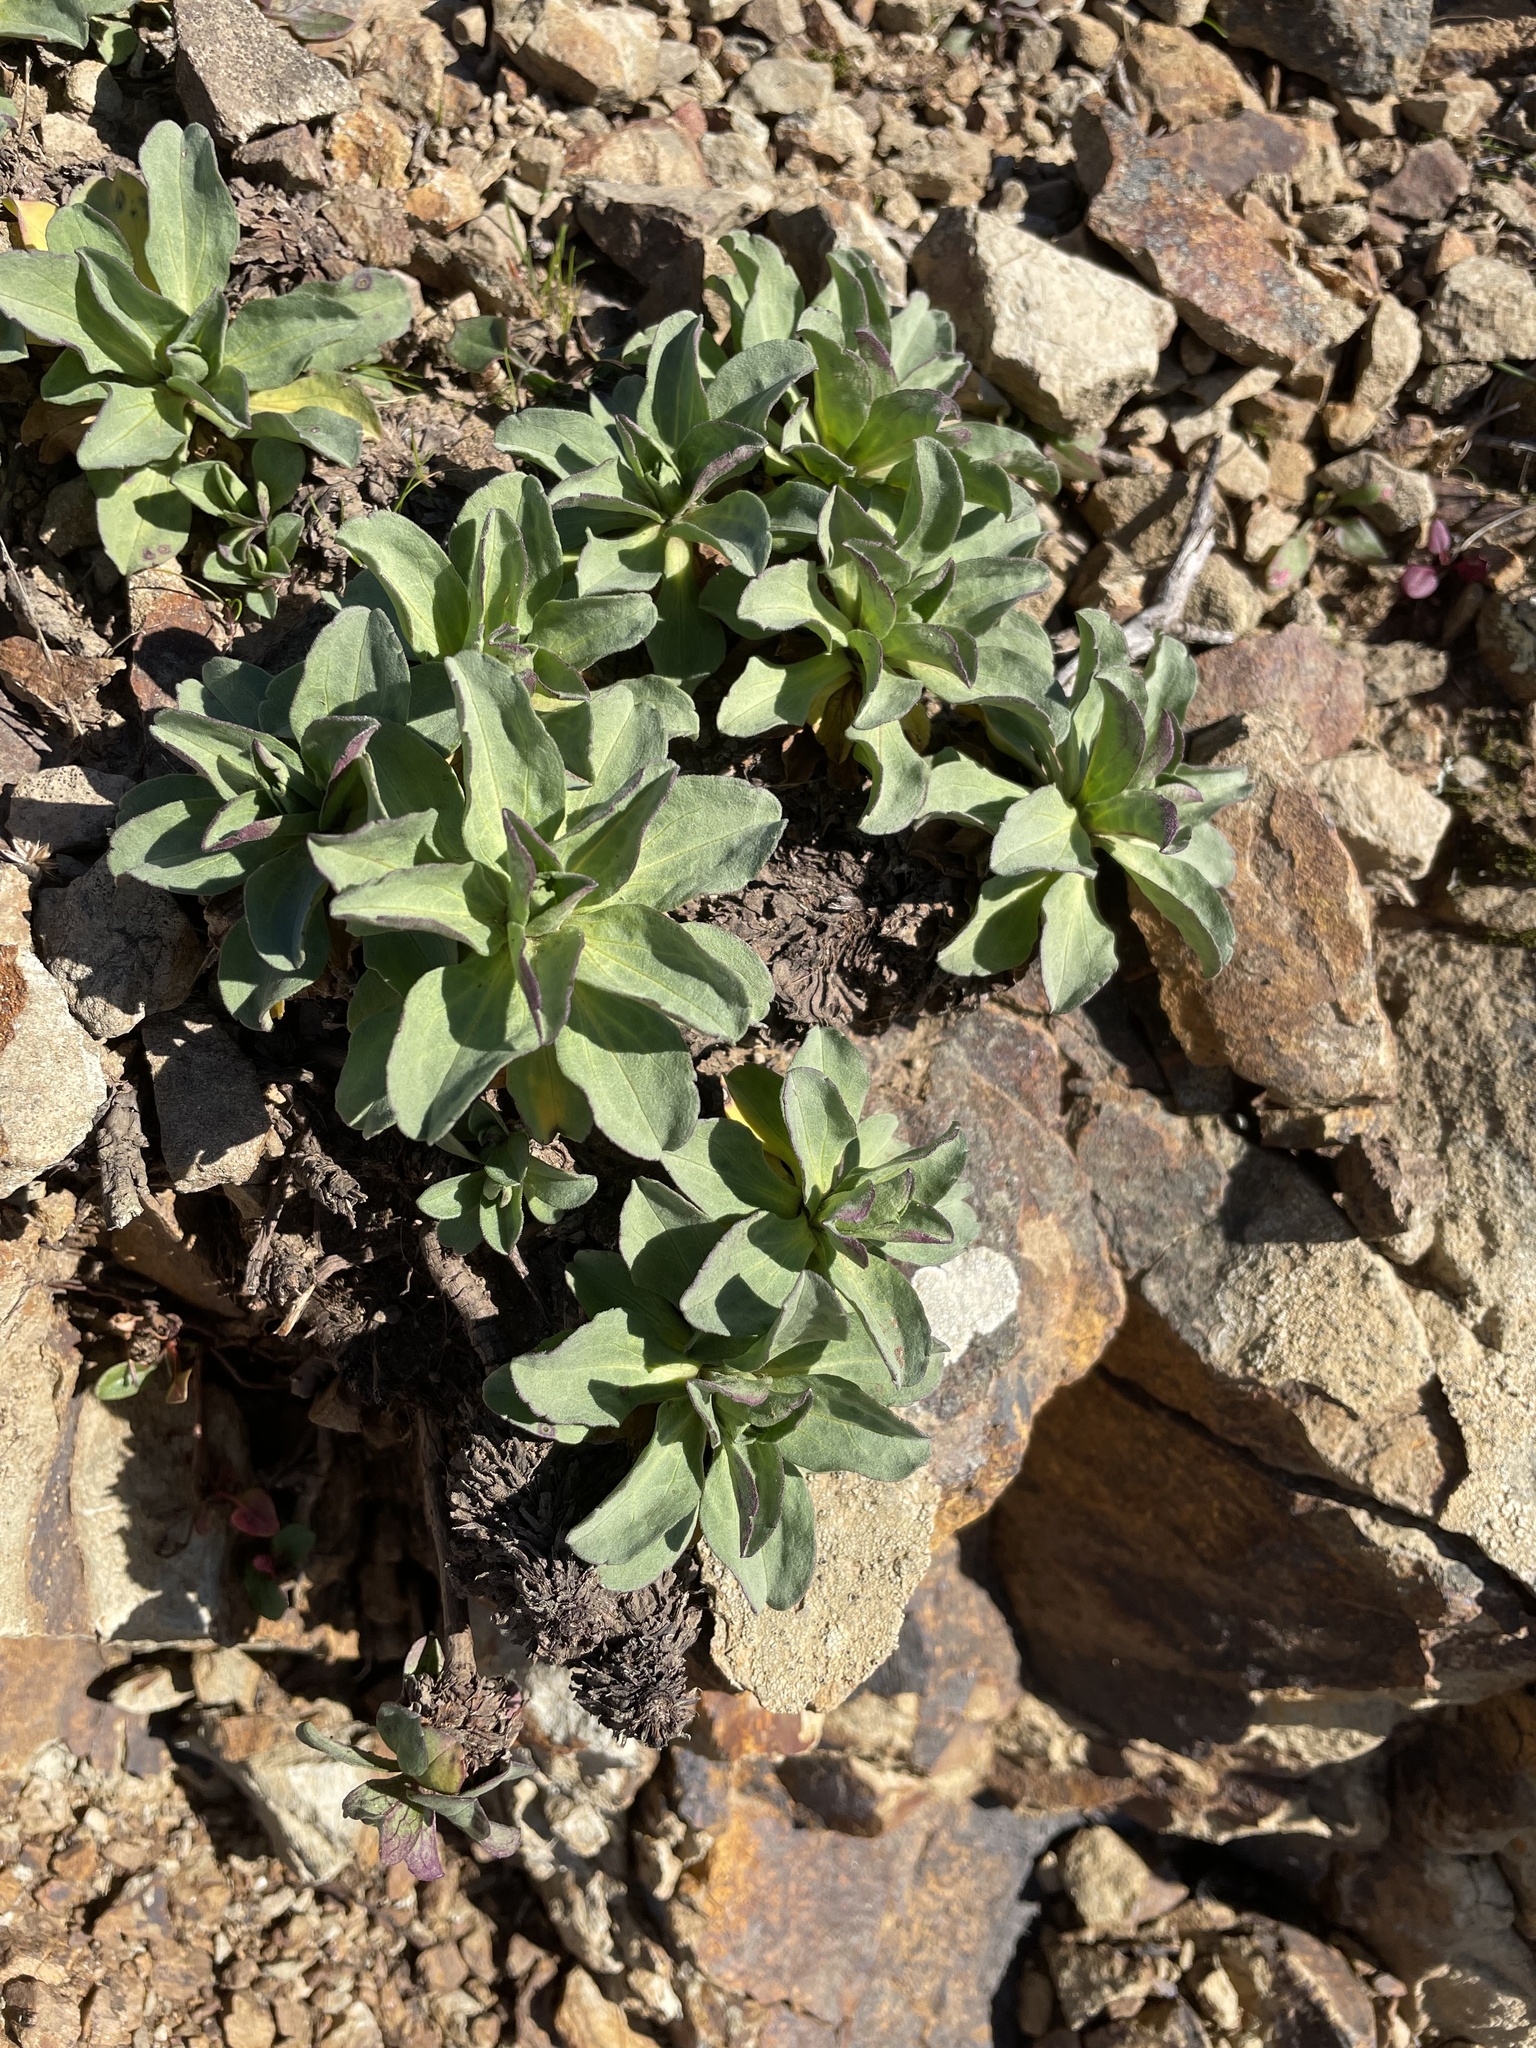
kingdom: Plantae
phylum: Tracheophyta
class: Magnoliopsida
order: Asterales
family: Asteraceae
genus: Erigeron
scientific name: Erigeron glaucus
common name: Seaside daisy
